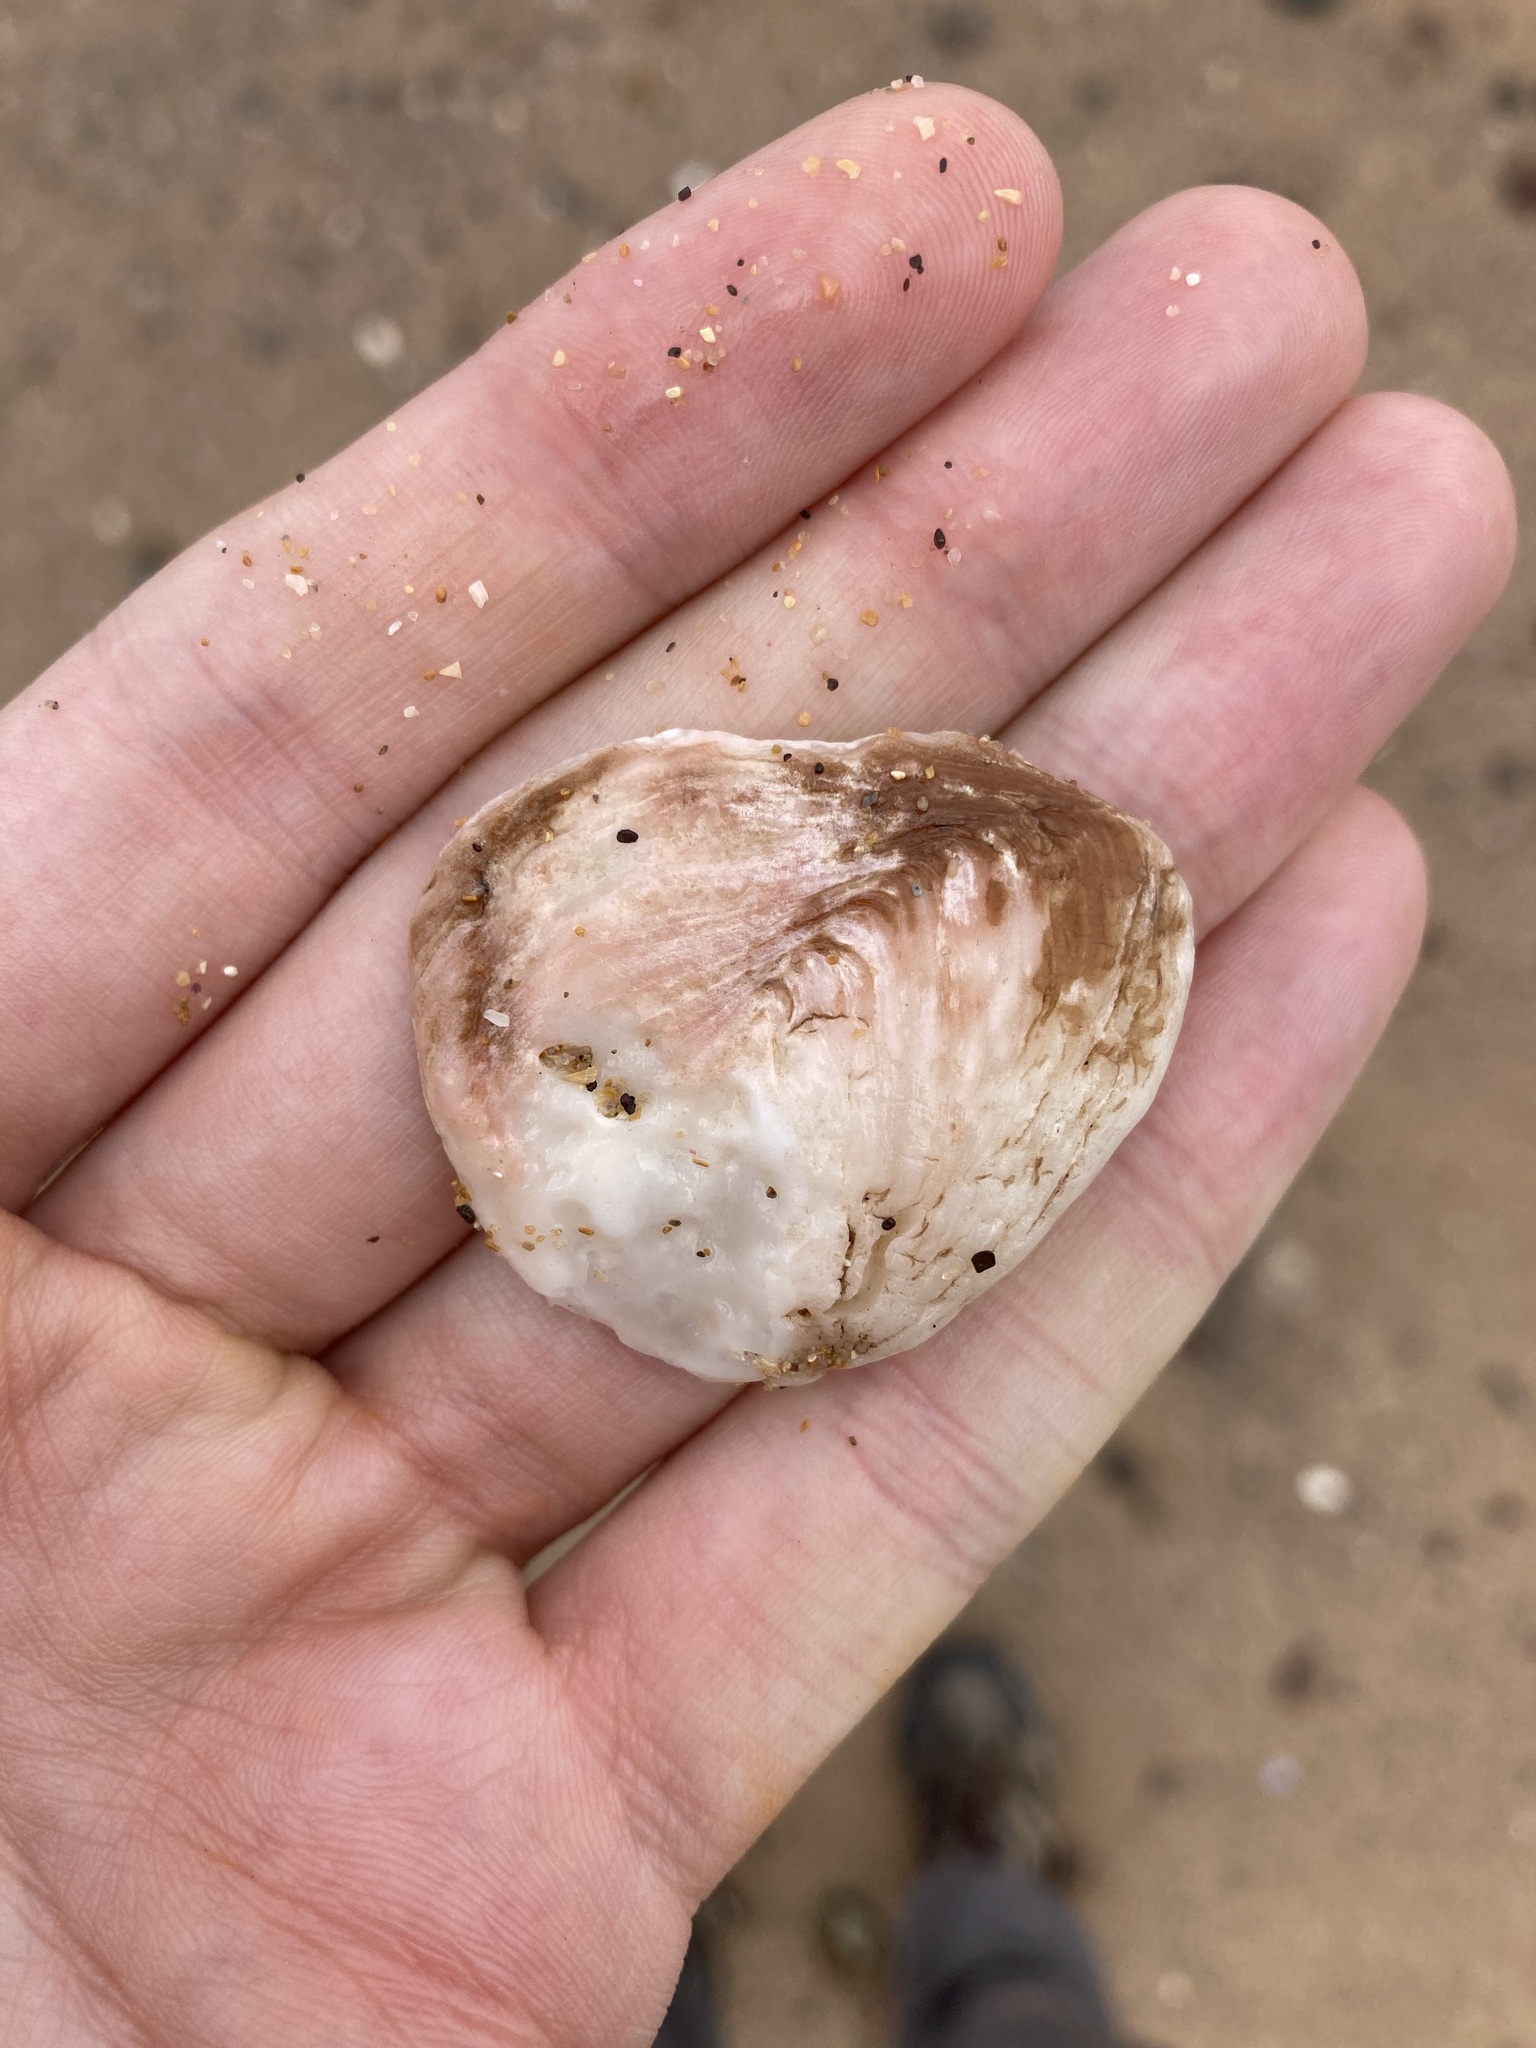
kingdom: Animalia
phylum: Mollusca
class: Bivalvia
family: Cleidothaeridae
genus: Cleidothaerus
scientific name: Cleidothaerus albidus
